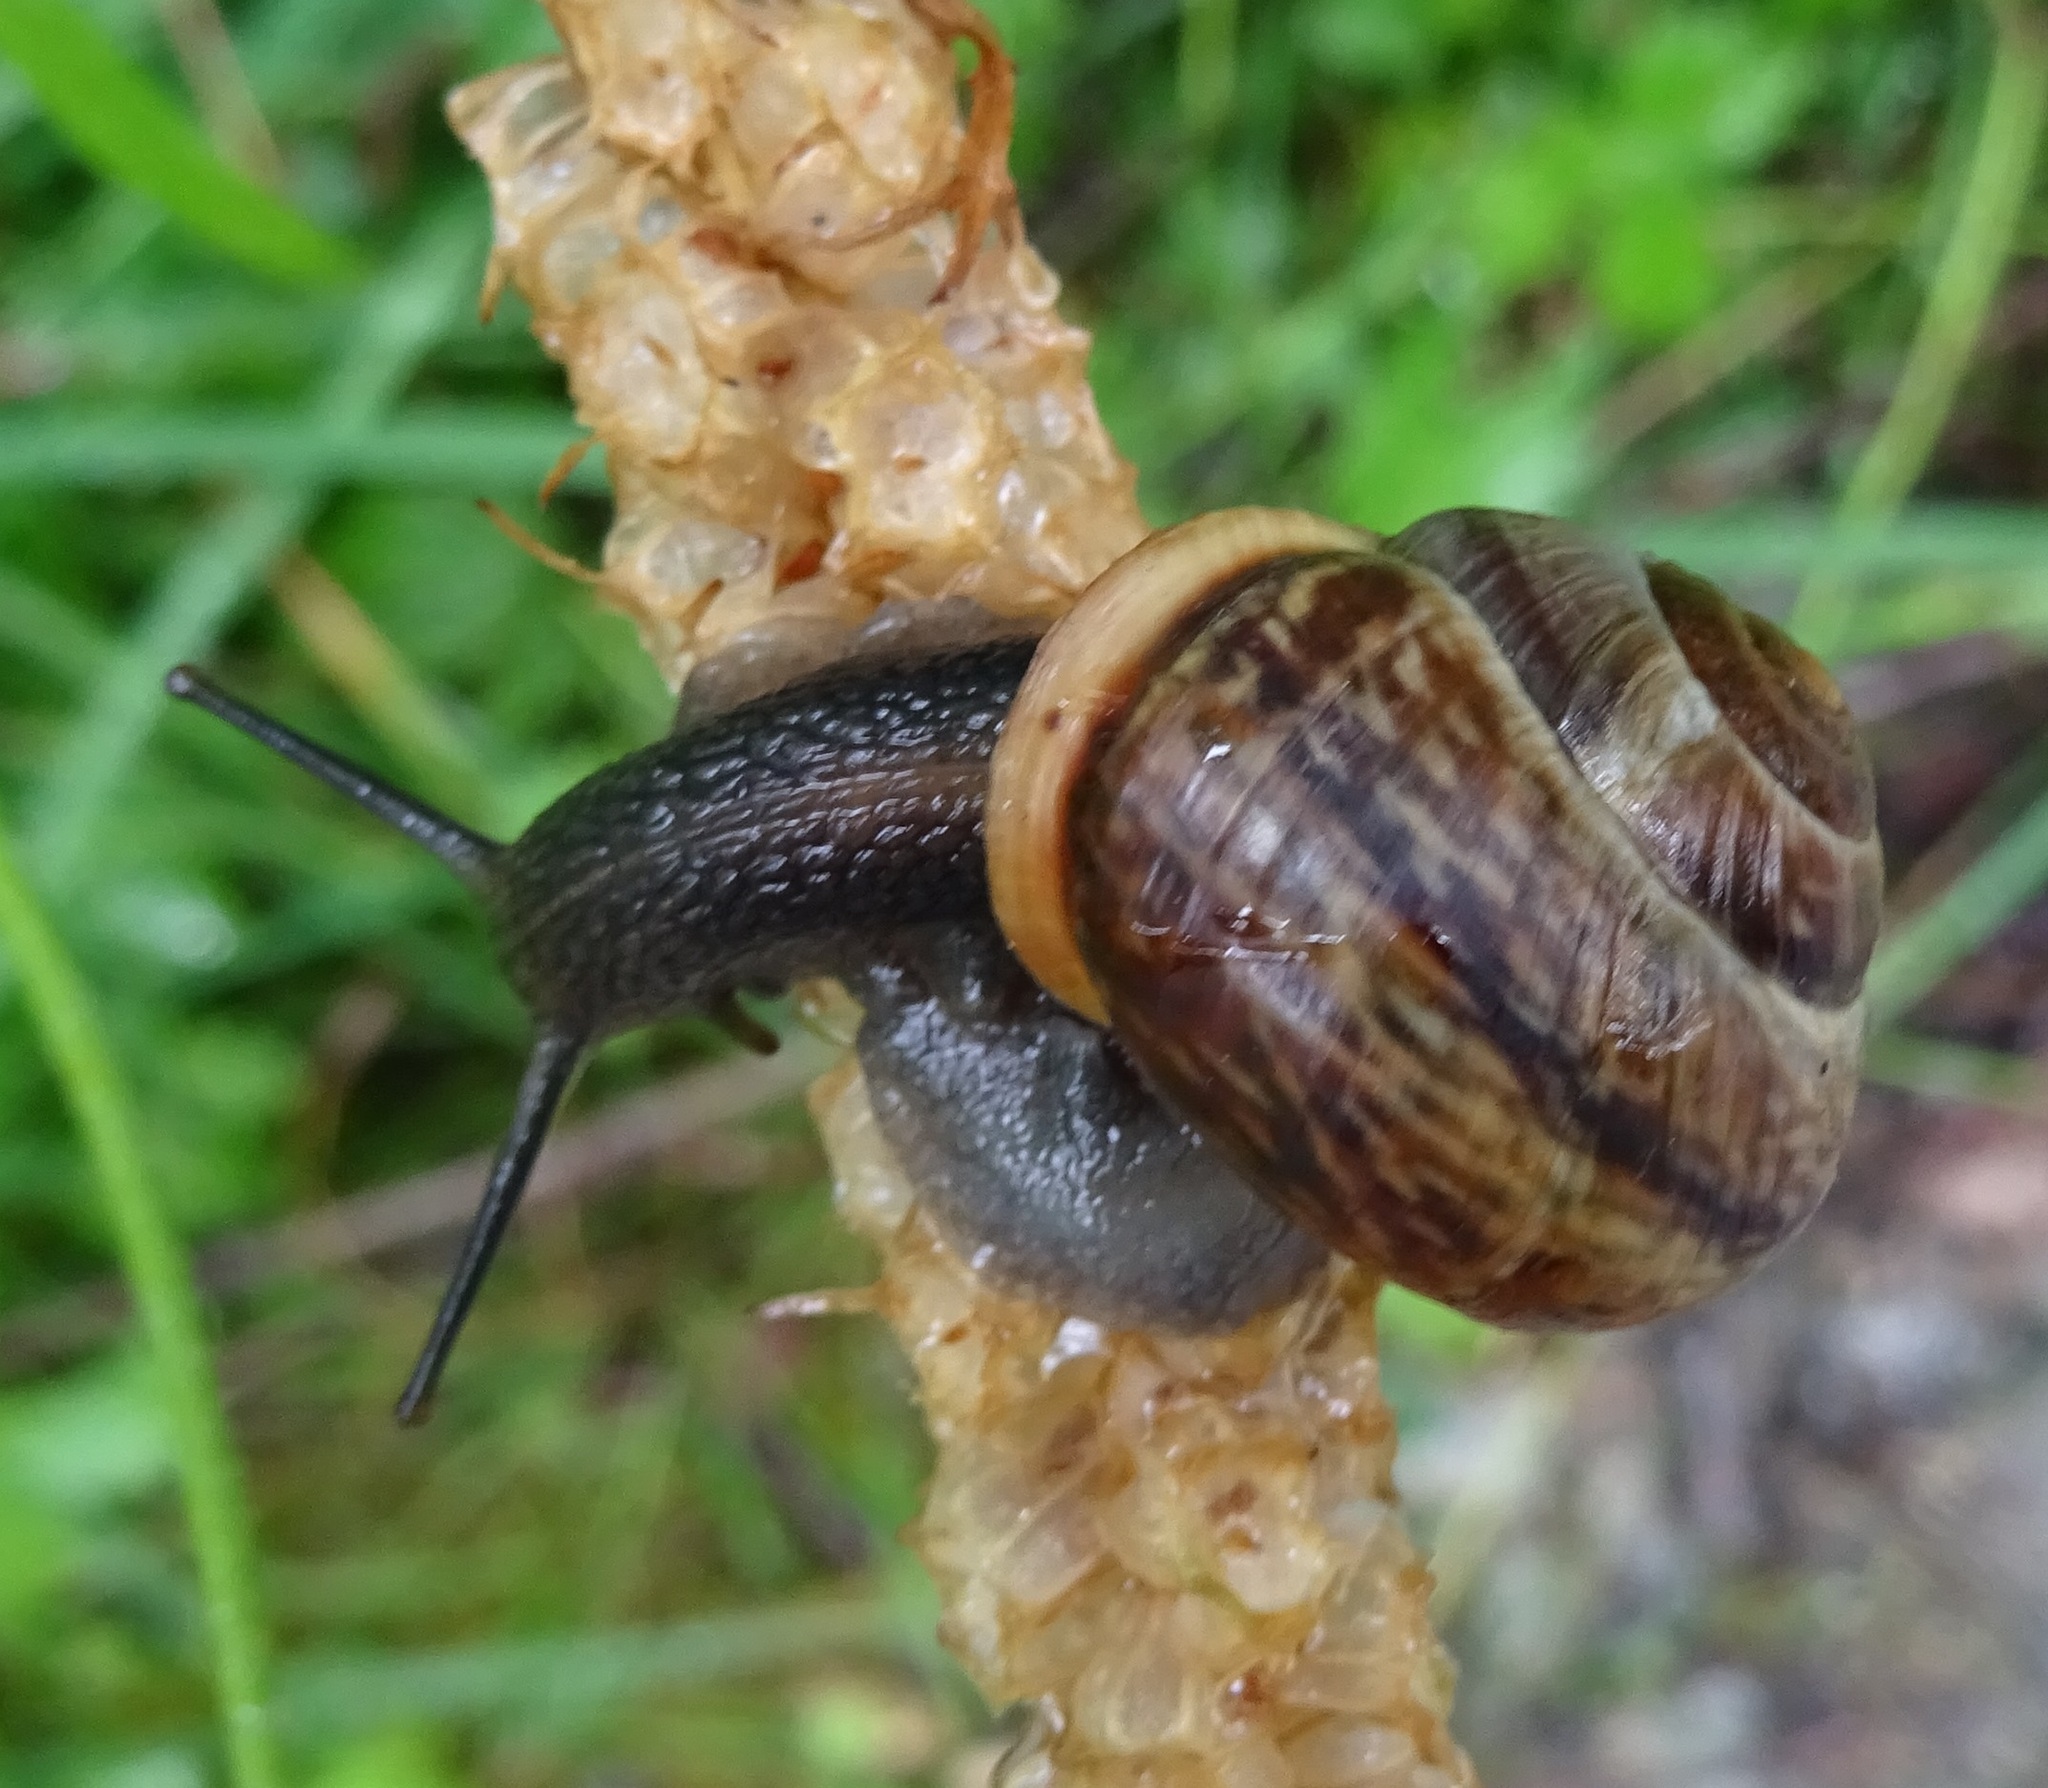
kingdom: Animalia
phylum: Mollusca
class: Gastropoda
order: Stylommatophora
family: Helicidae
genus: Arianta
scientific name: Arianta arbustorum
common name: Copse snail
